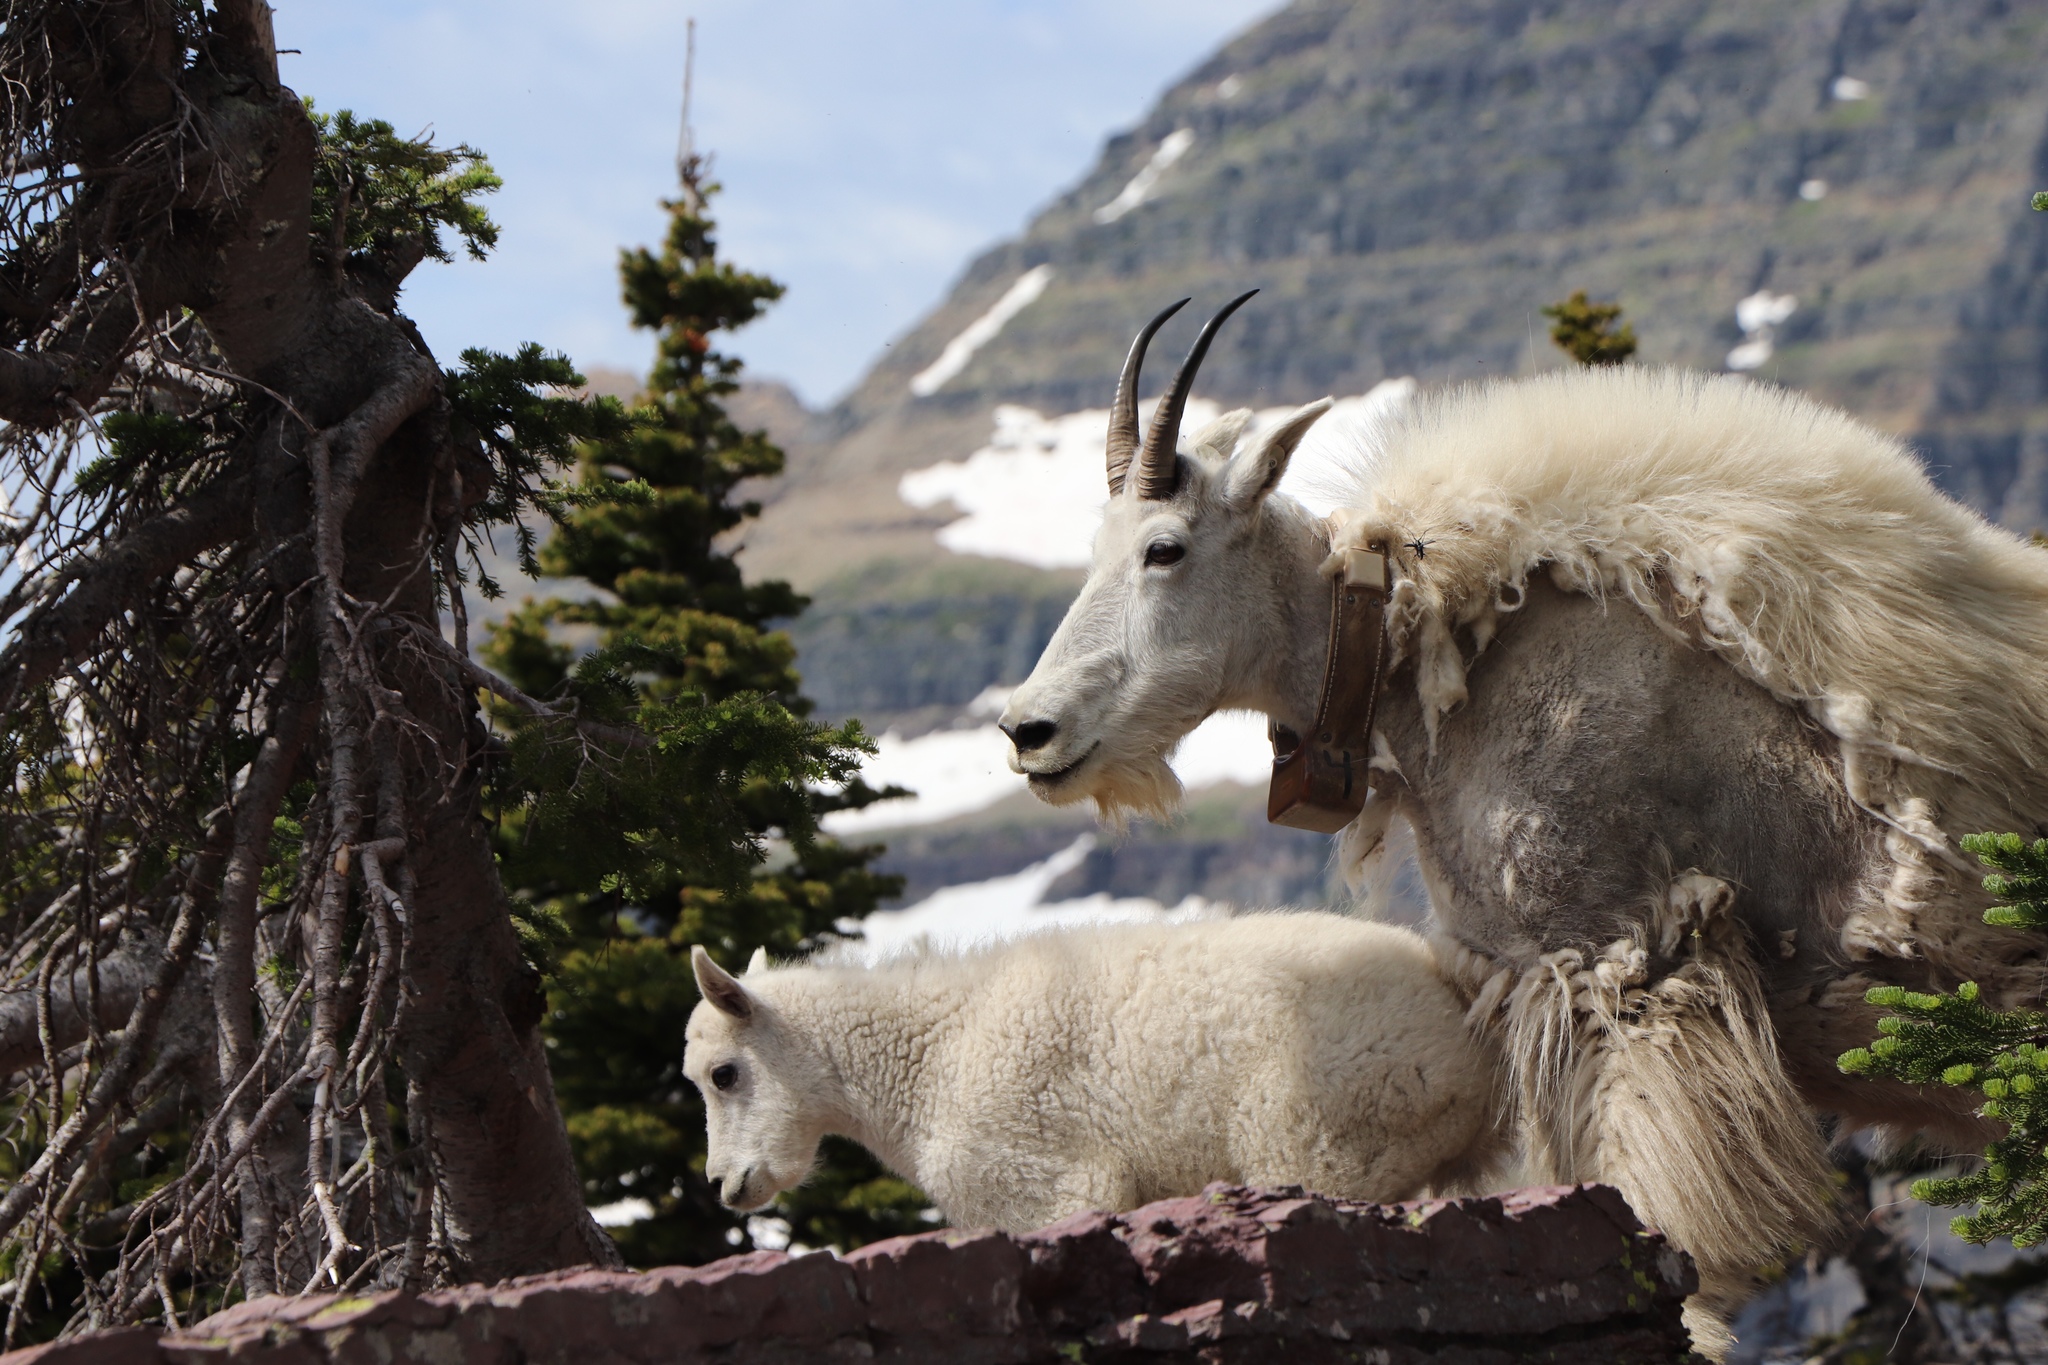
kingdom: Animalia
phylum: Chordata
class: Mammalia
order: Artiodactyla
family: Bovidae
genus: Oreamnos
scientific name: Oreamnos americanus
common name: Mountain goat
